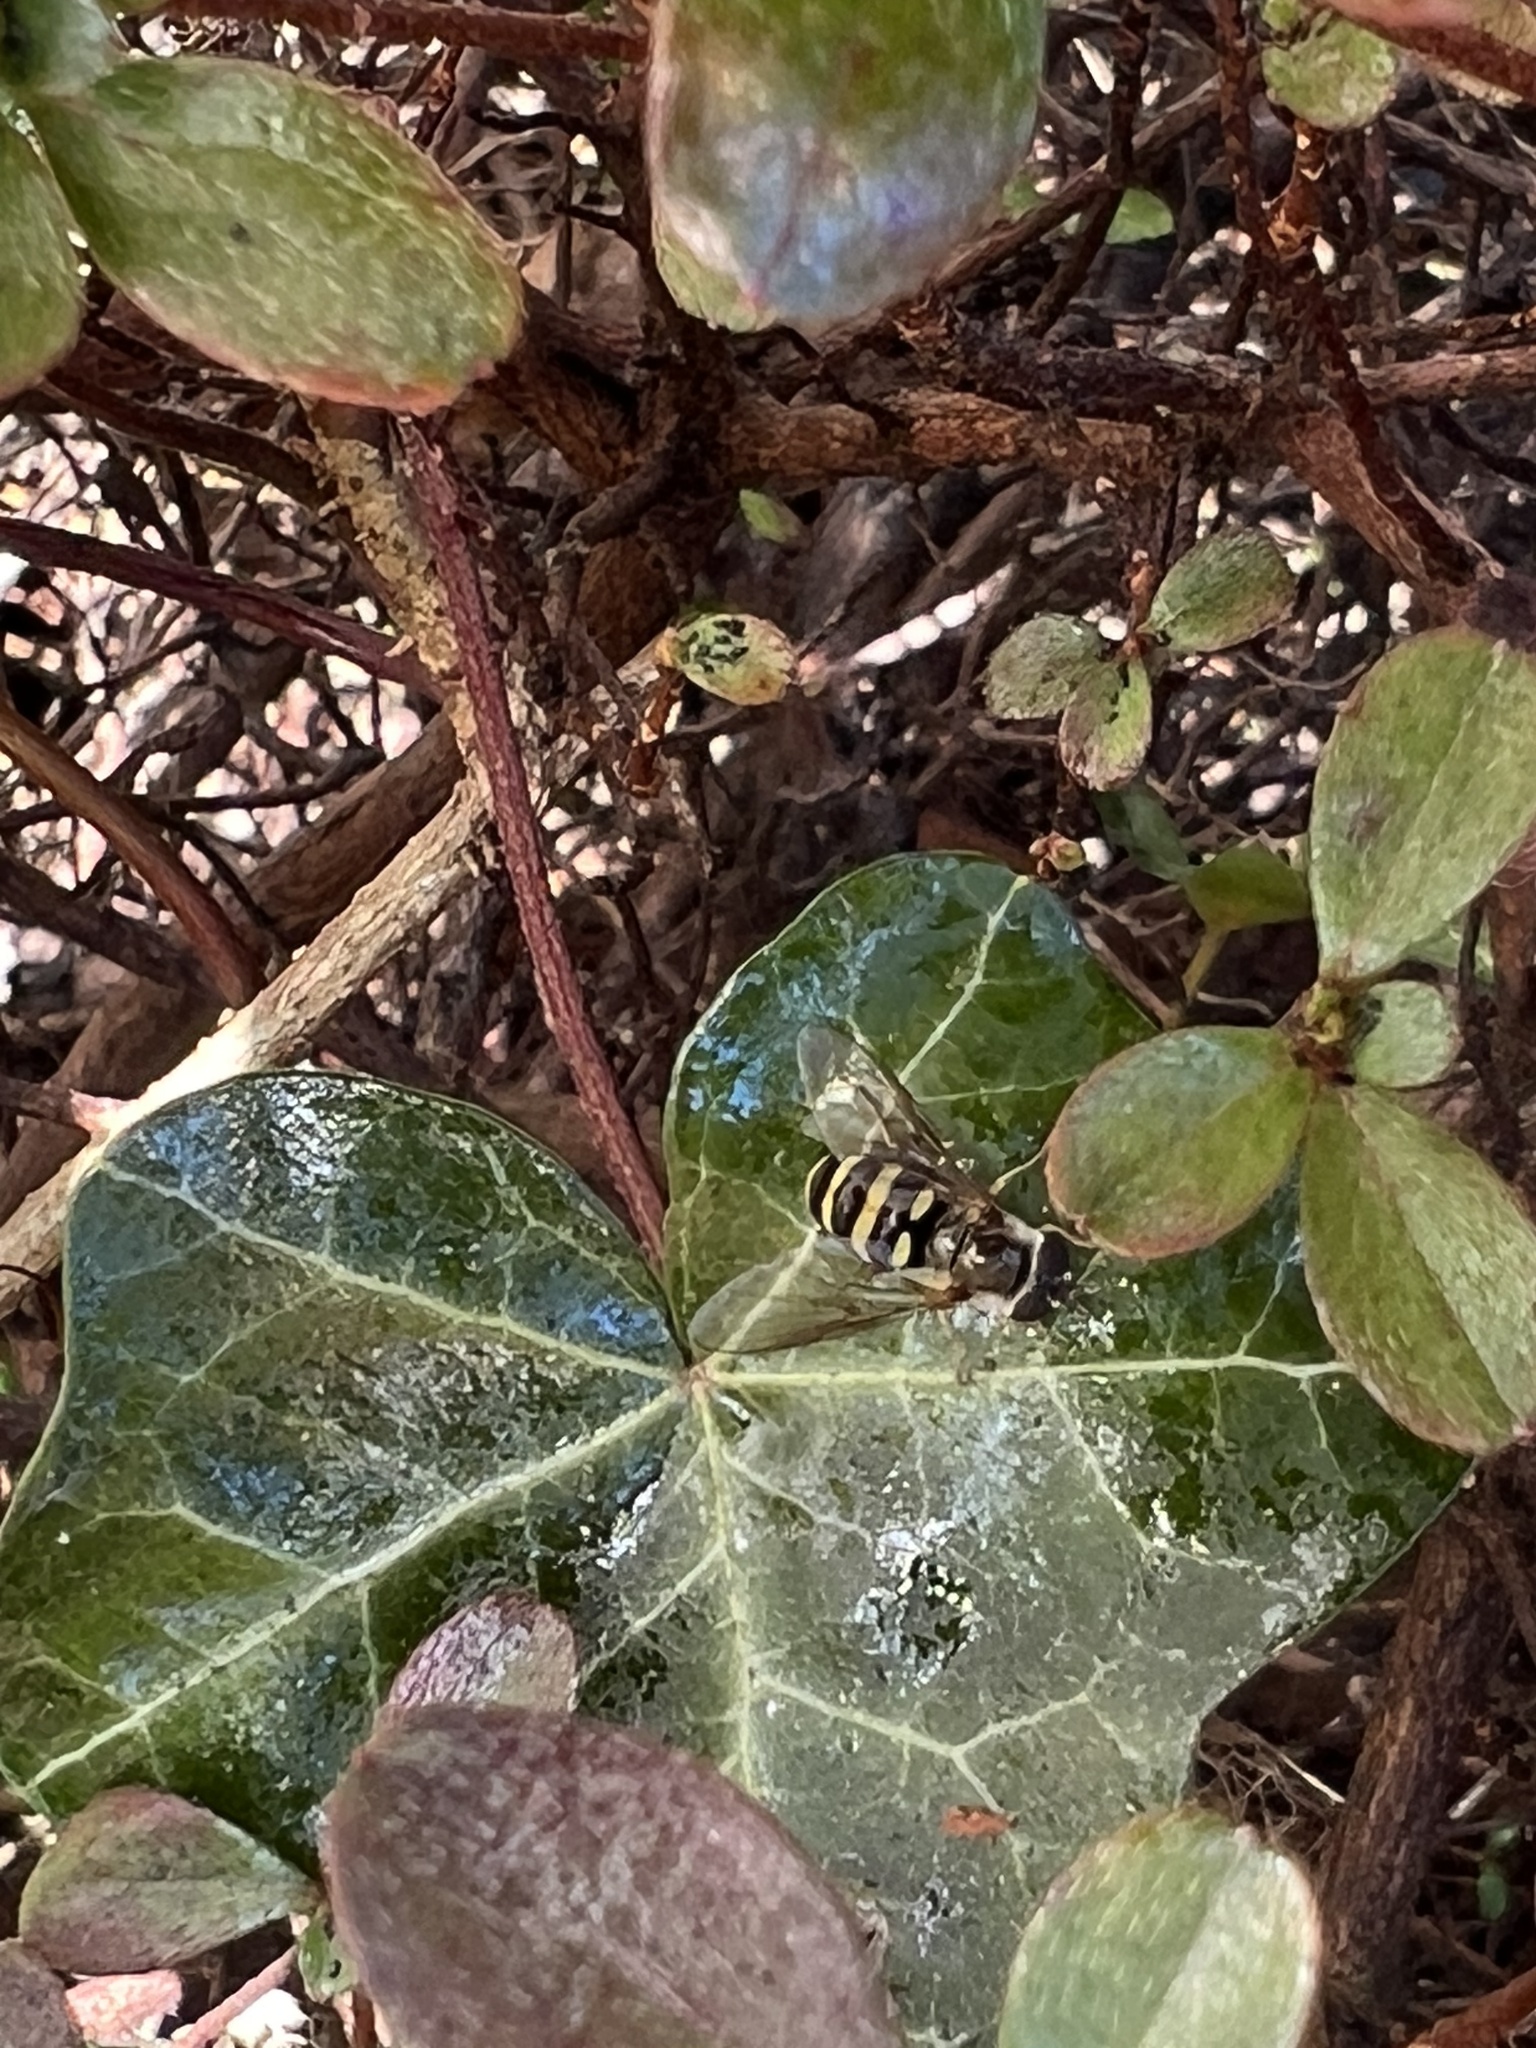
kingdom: Animalia
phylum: Arthropoda
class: Insecta
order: Diptera
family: Syrphidae
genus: Eupeodes
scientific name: Eupeodes
